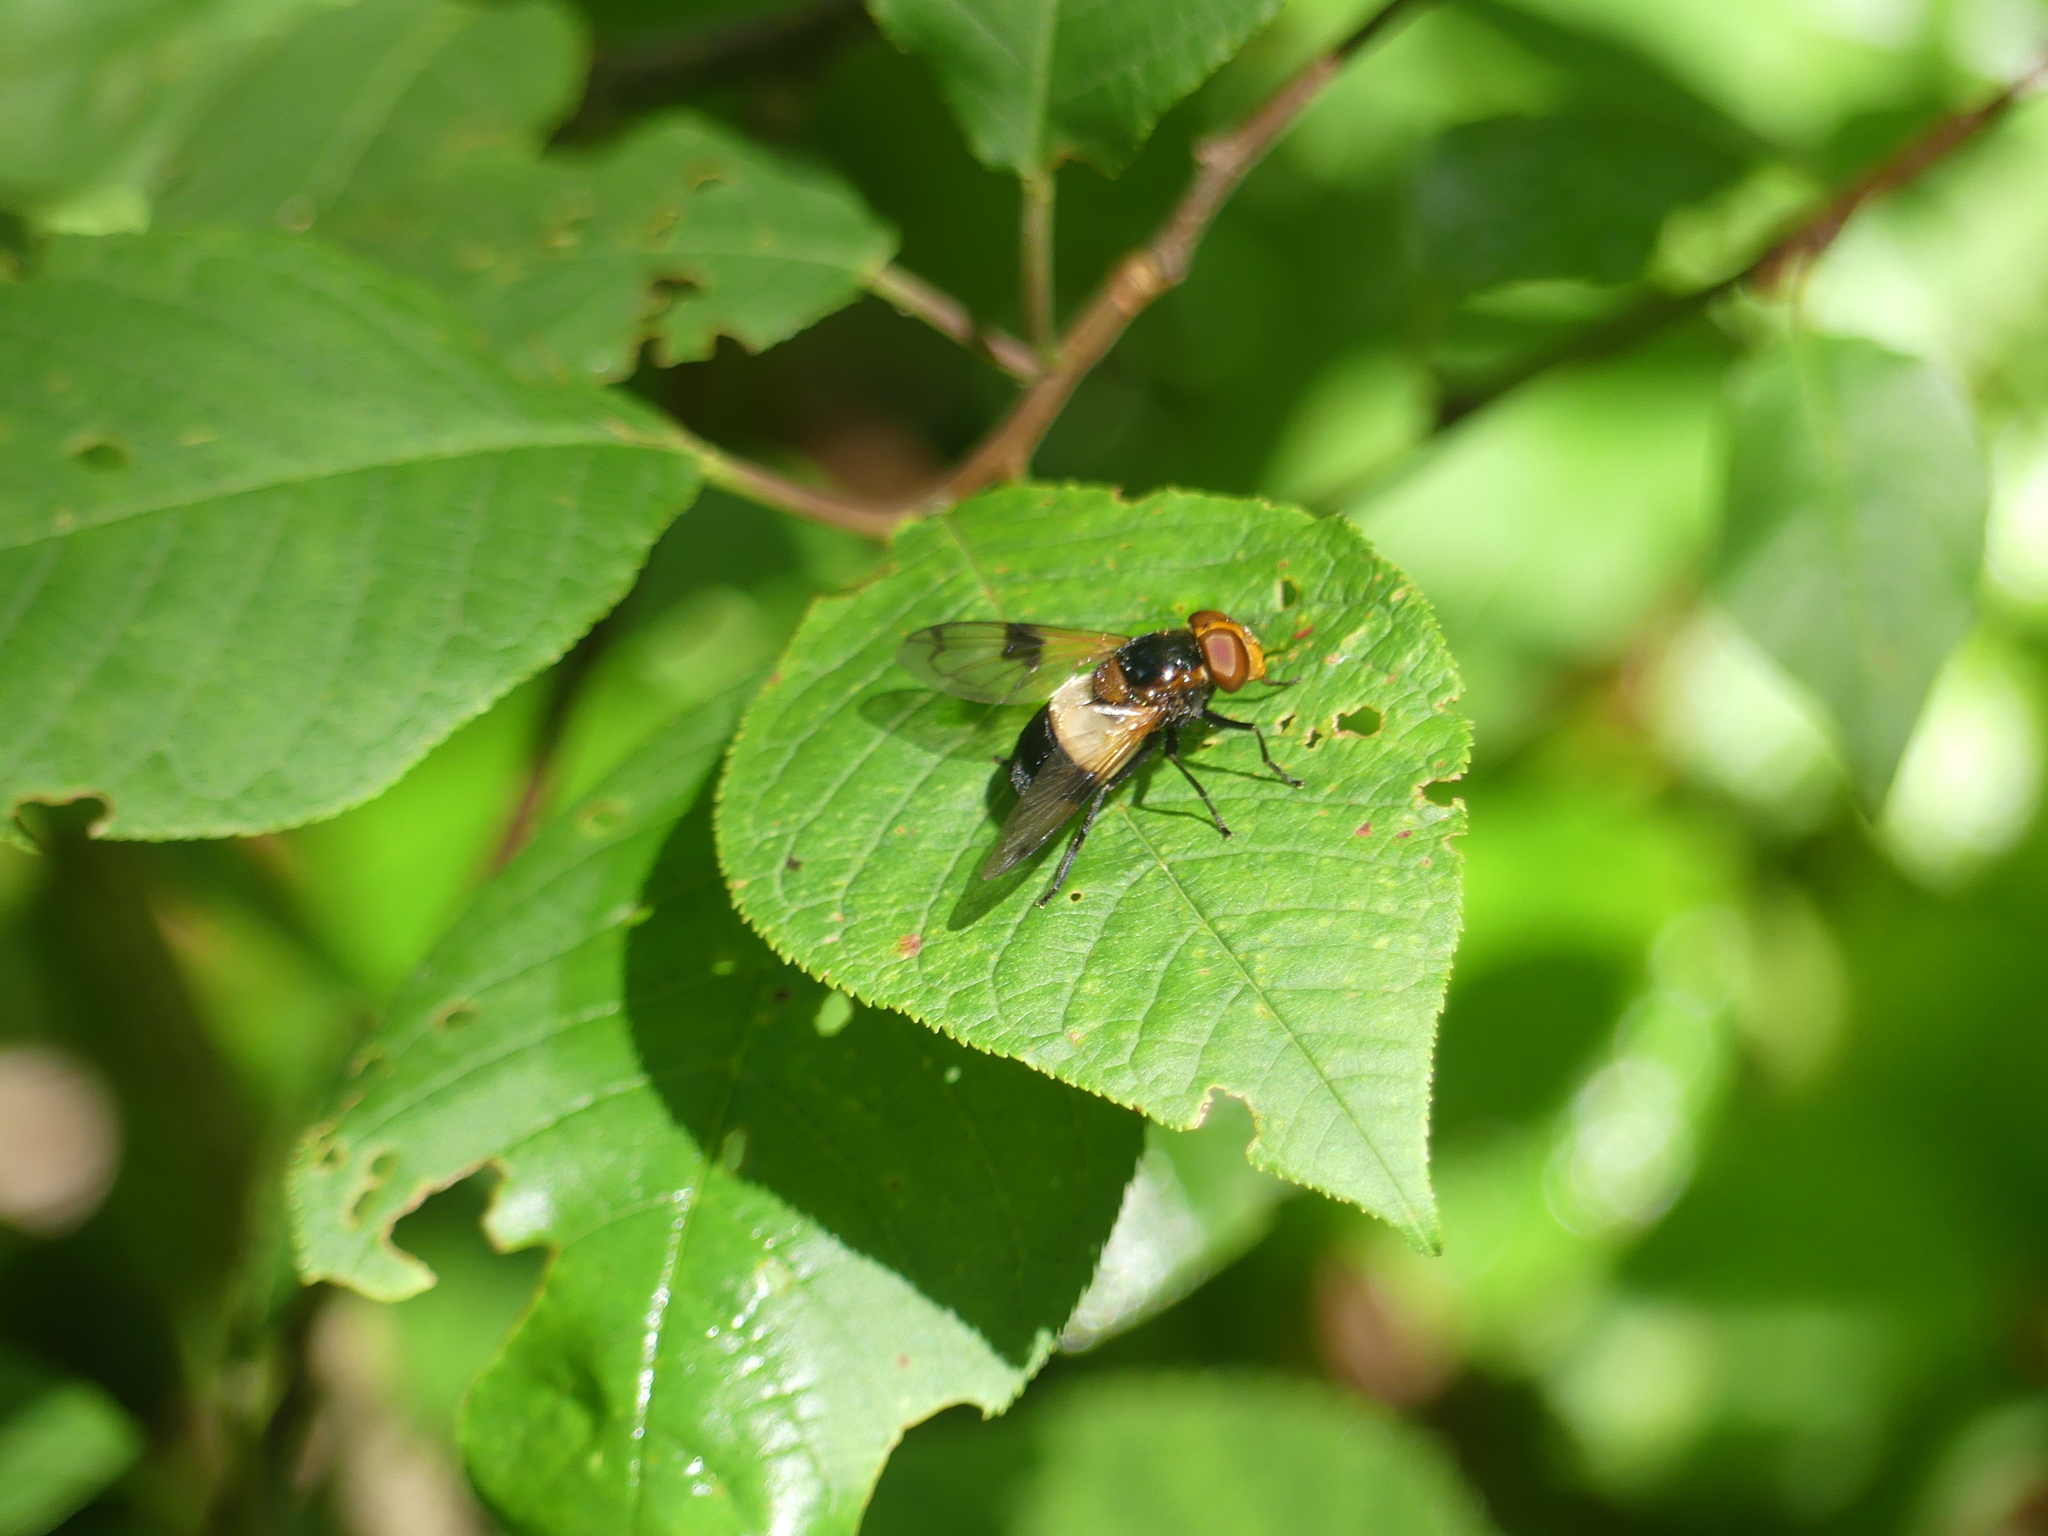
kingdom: Animalia
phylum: Arthropoda
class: Insecta
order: Diptera
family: Syrphidae
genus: Volucella
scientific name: Volucella pellucens
